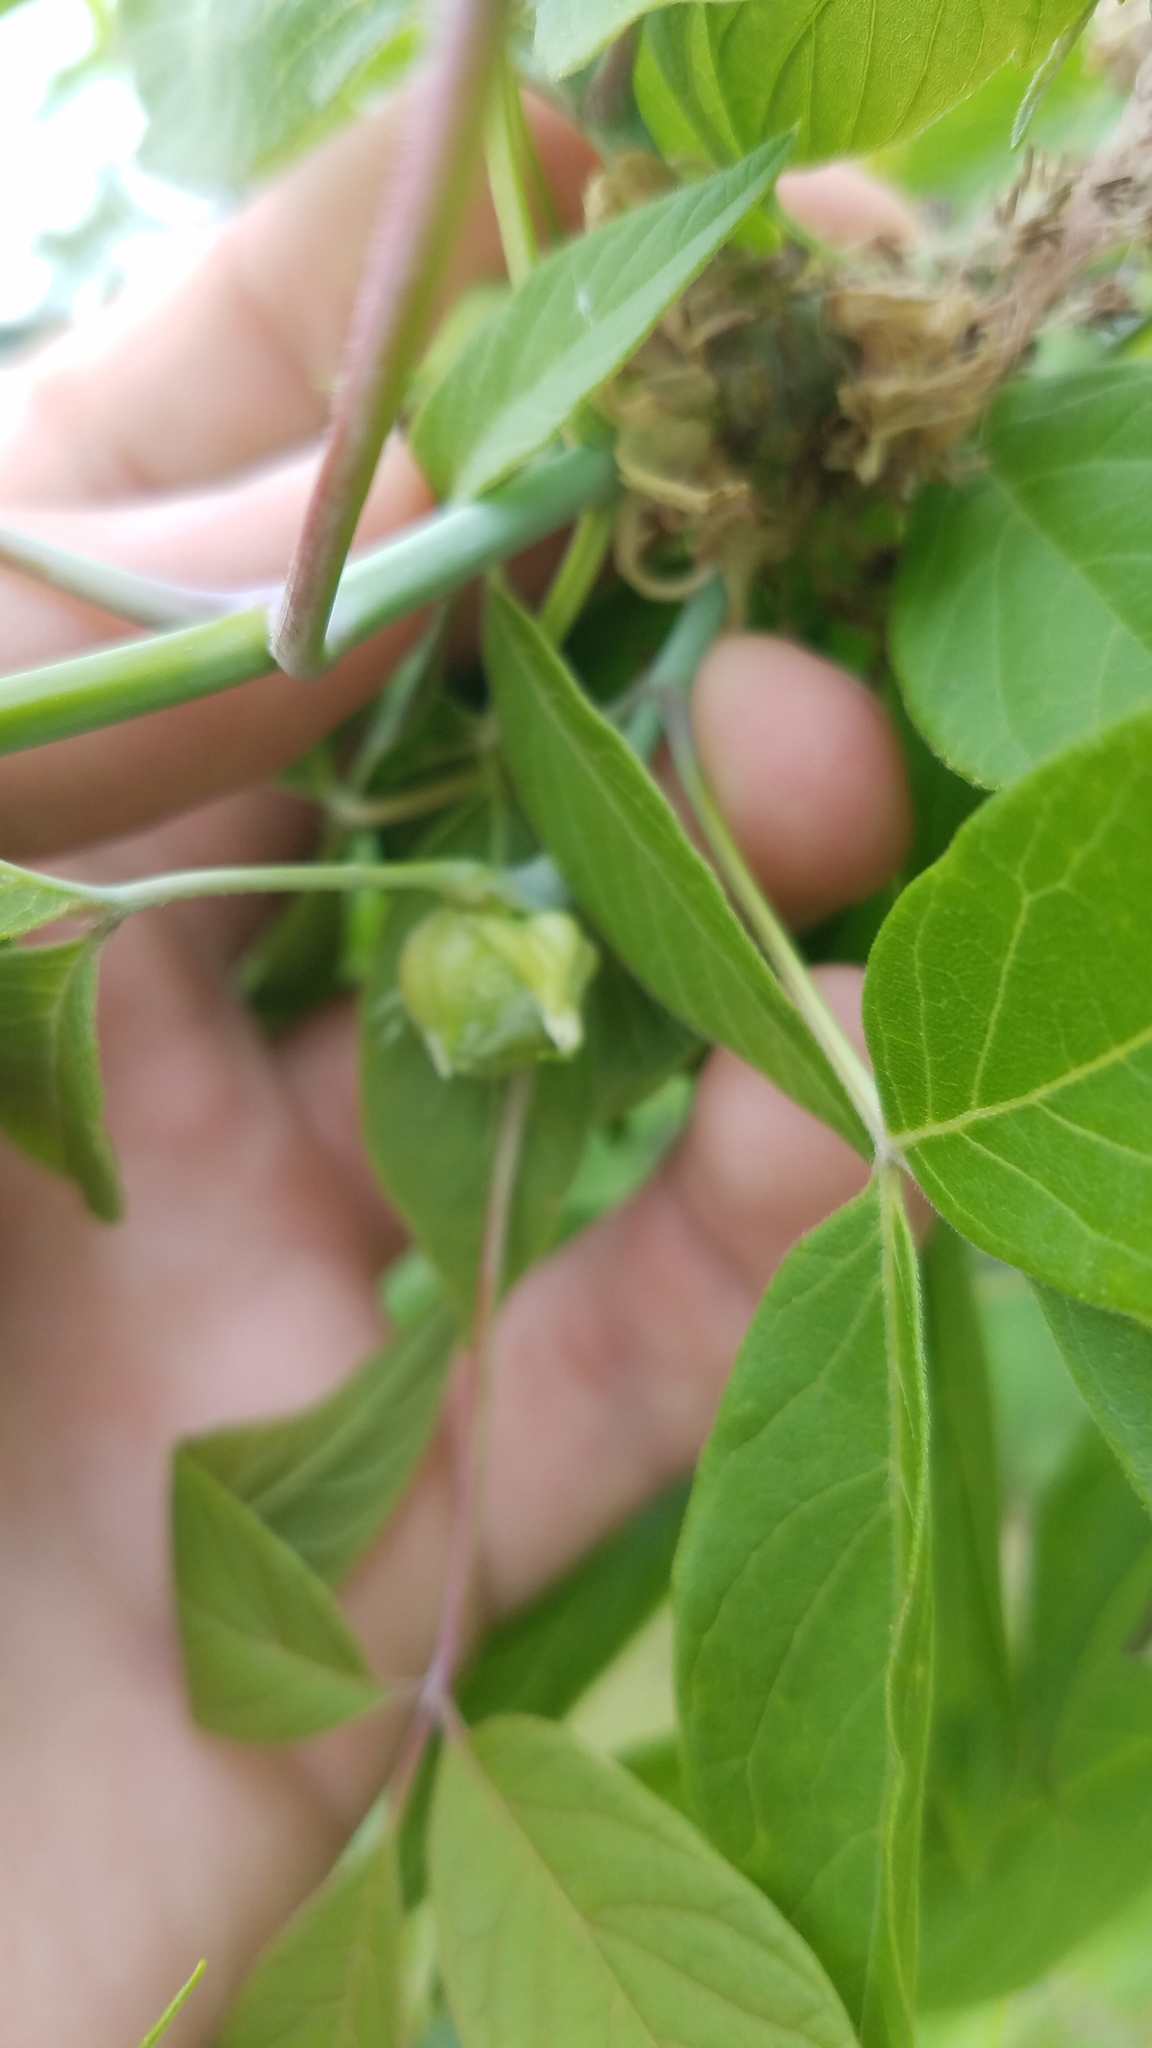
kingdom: Animalia
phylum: Arthropoda
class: Insecta
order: Diptera
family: Cecidomyiidae
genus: Contarinia
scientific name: Contarinia negundinis
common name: Boxelder budgall midge
